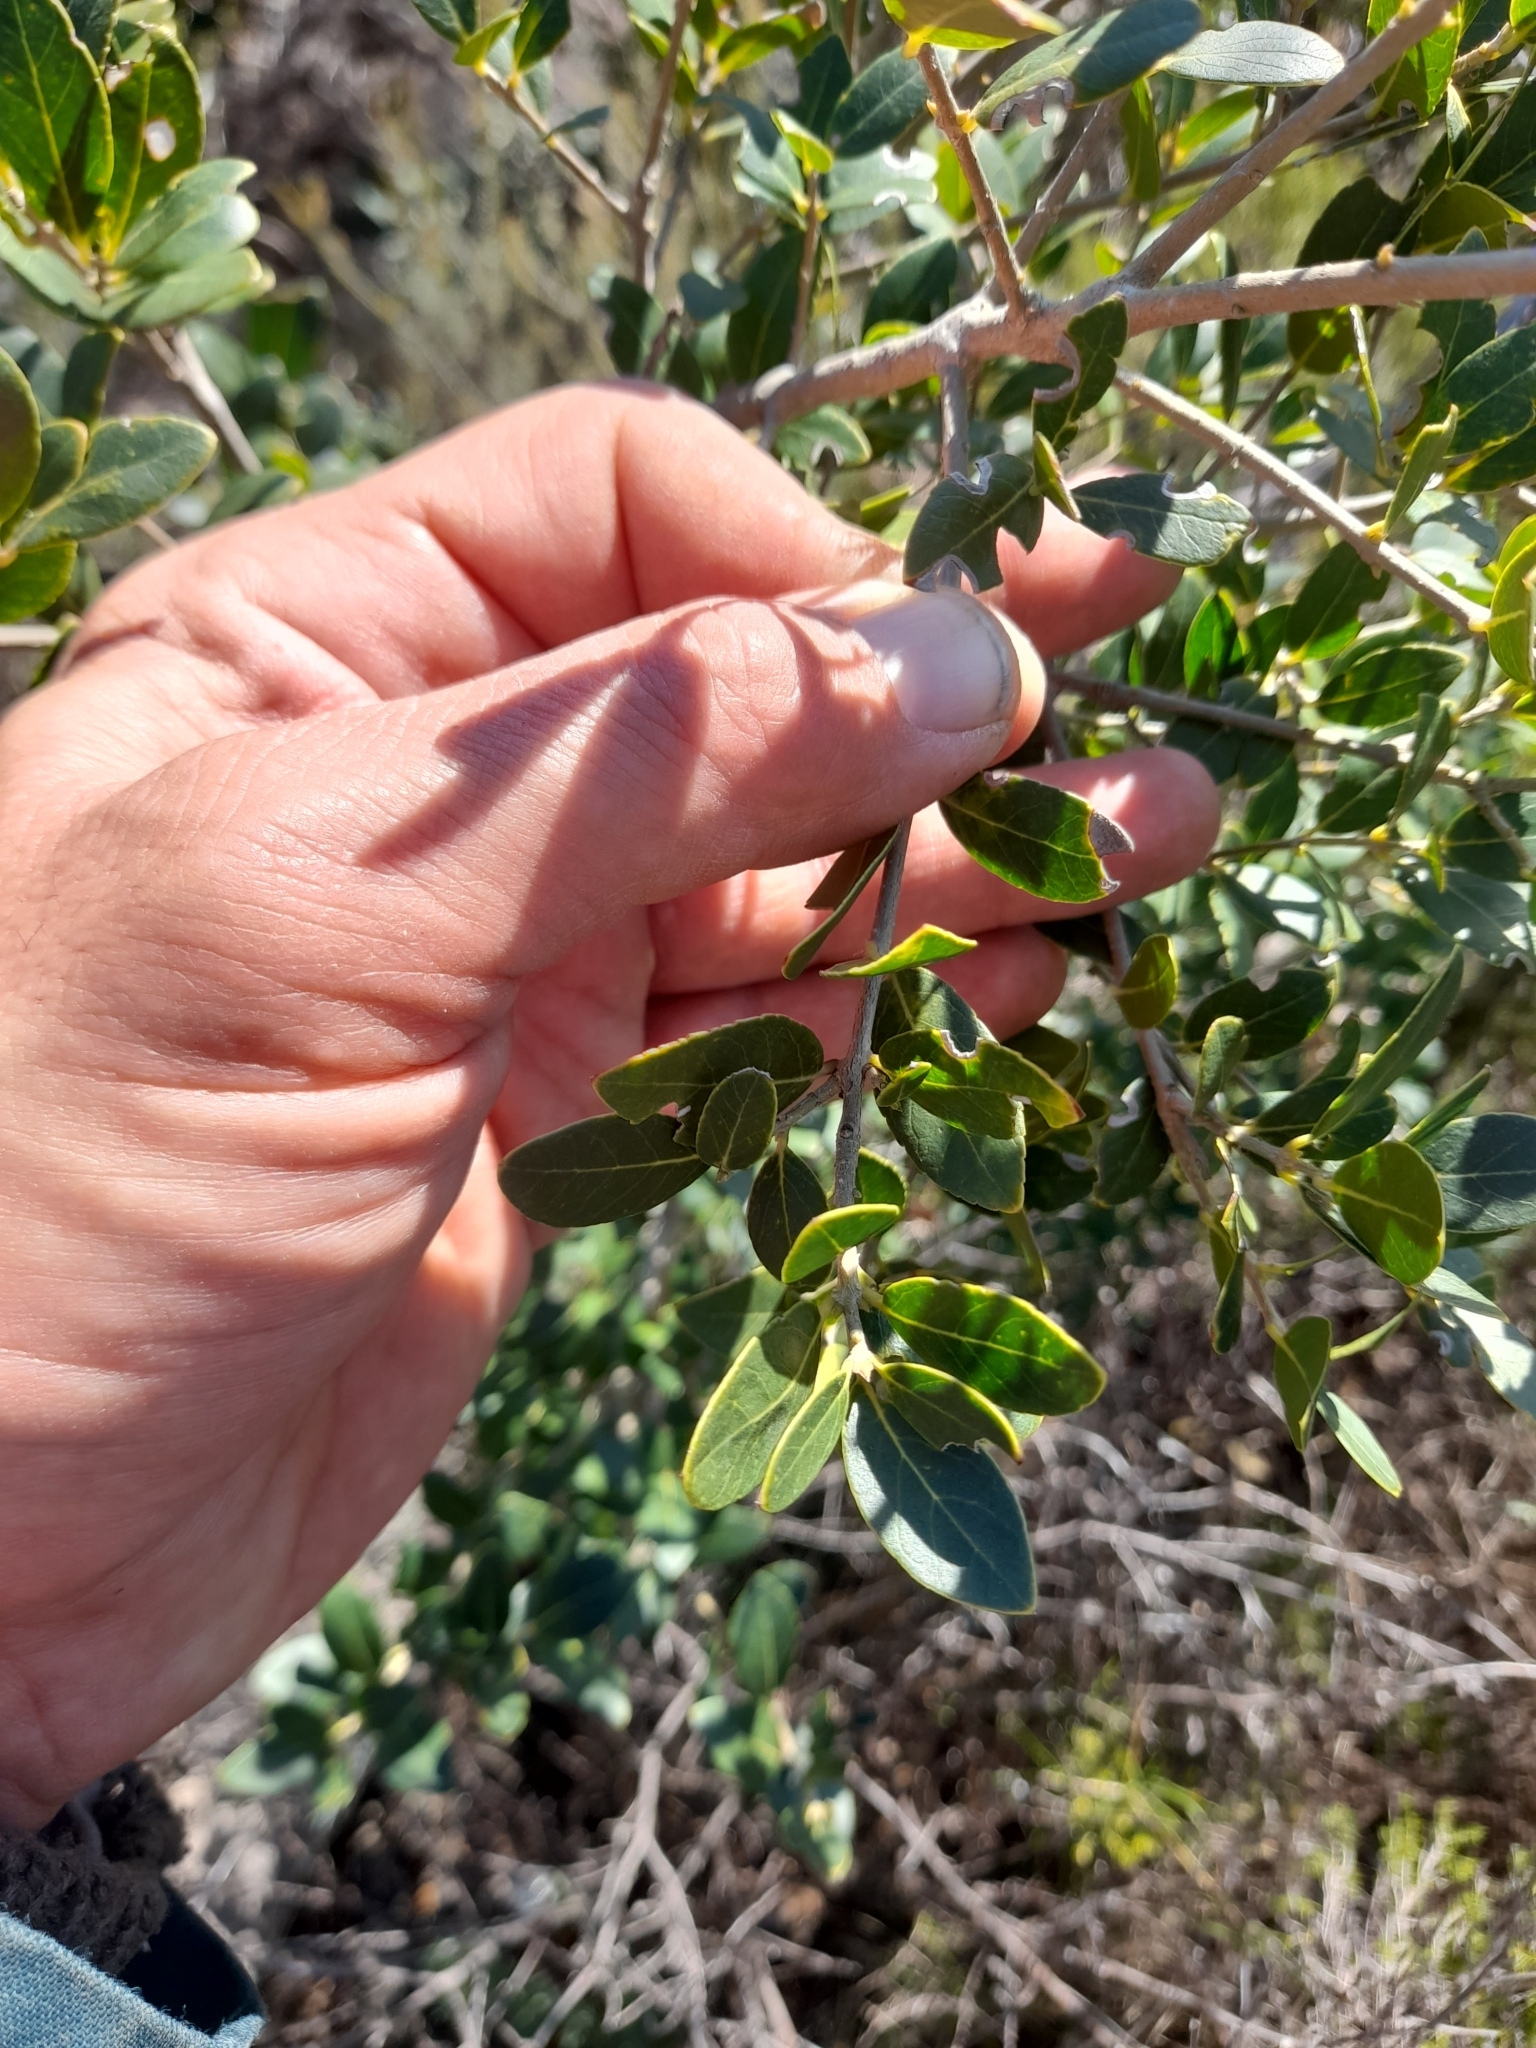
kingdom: Plantae
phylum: Tracheophyta
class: Magnoliopsida
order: Lamiales
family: Oleaceae
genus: Phillyrea
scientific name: Phillyrea latifolia
